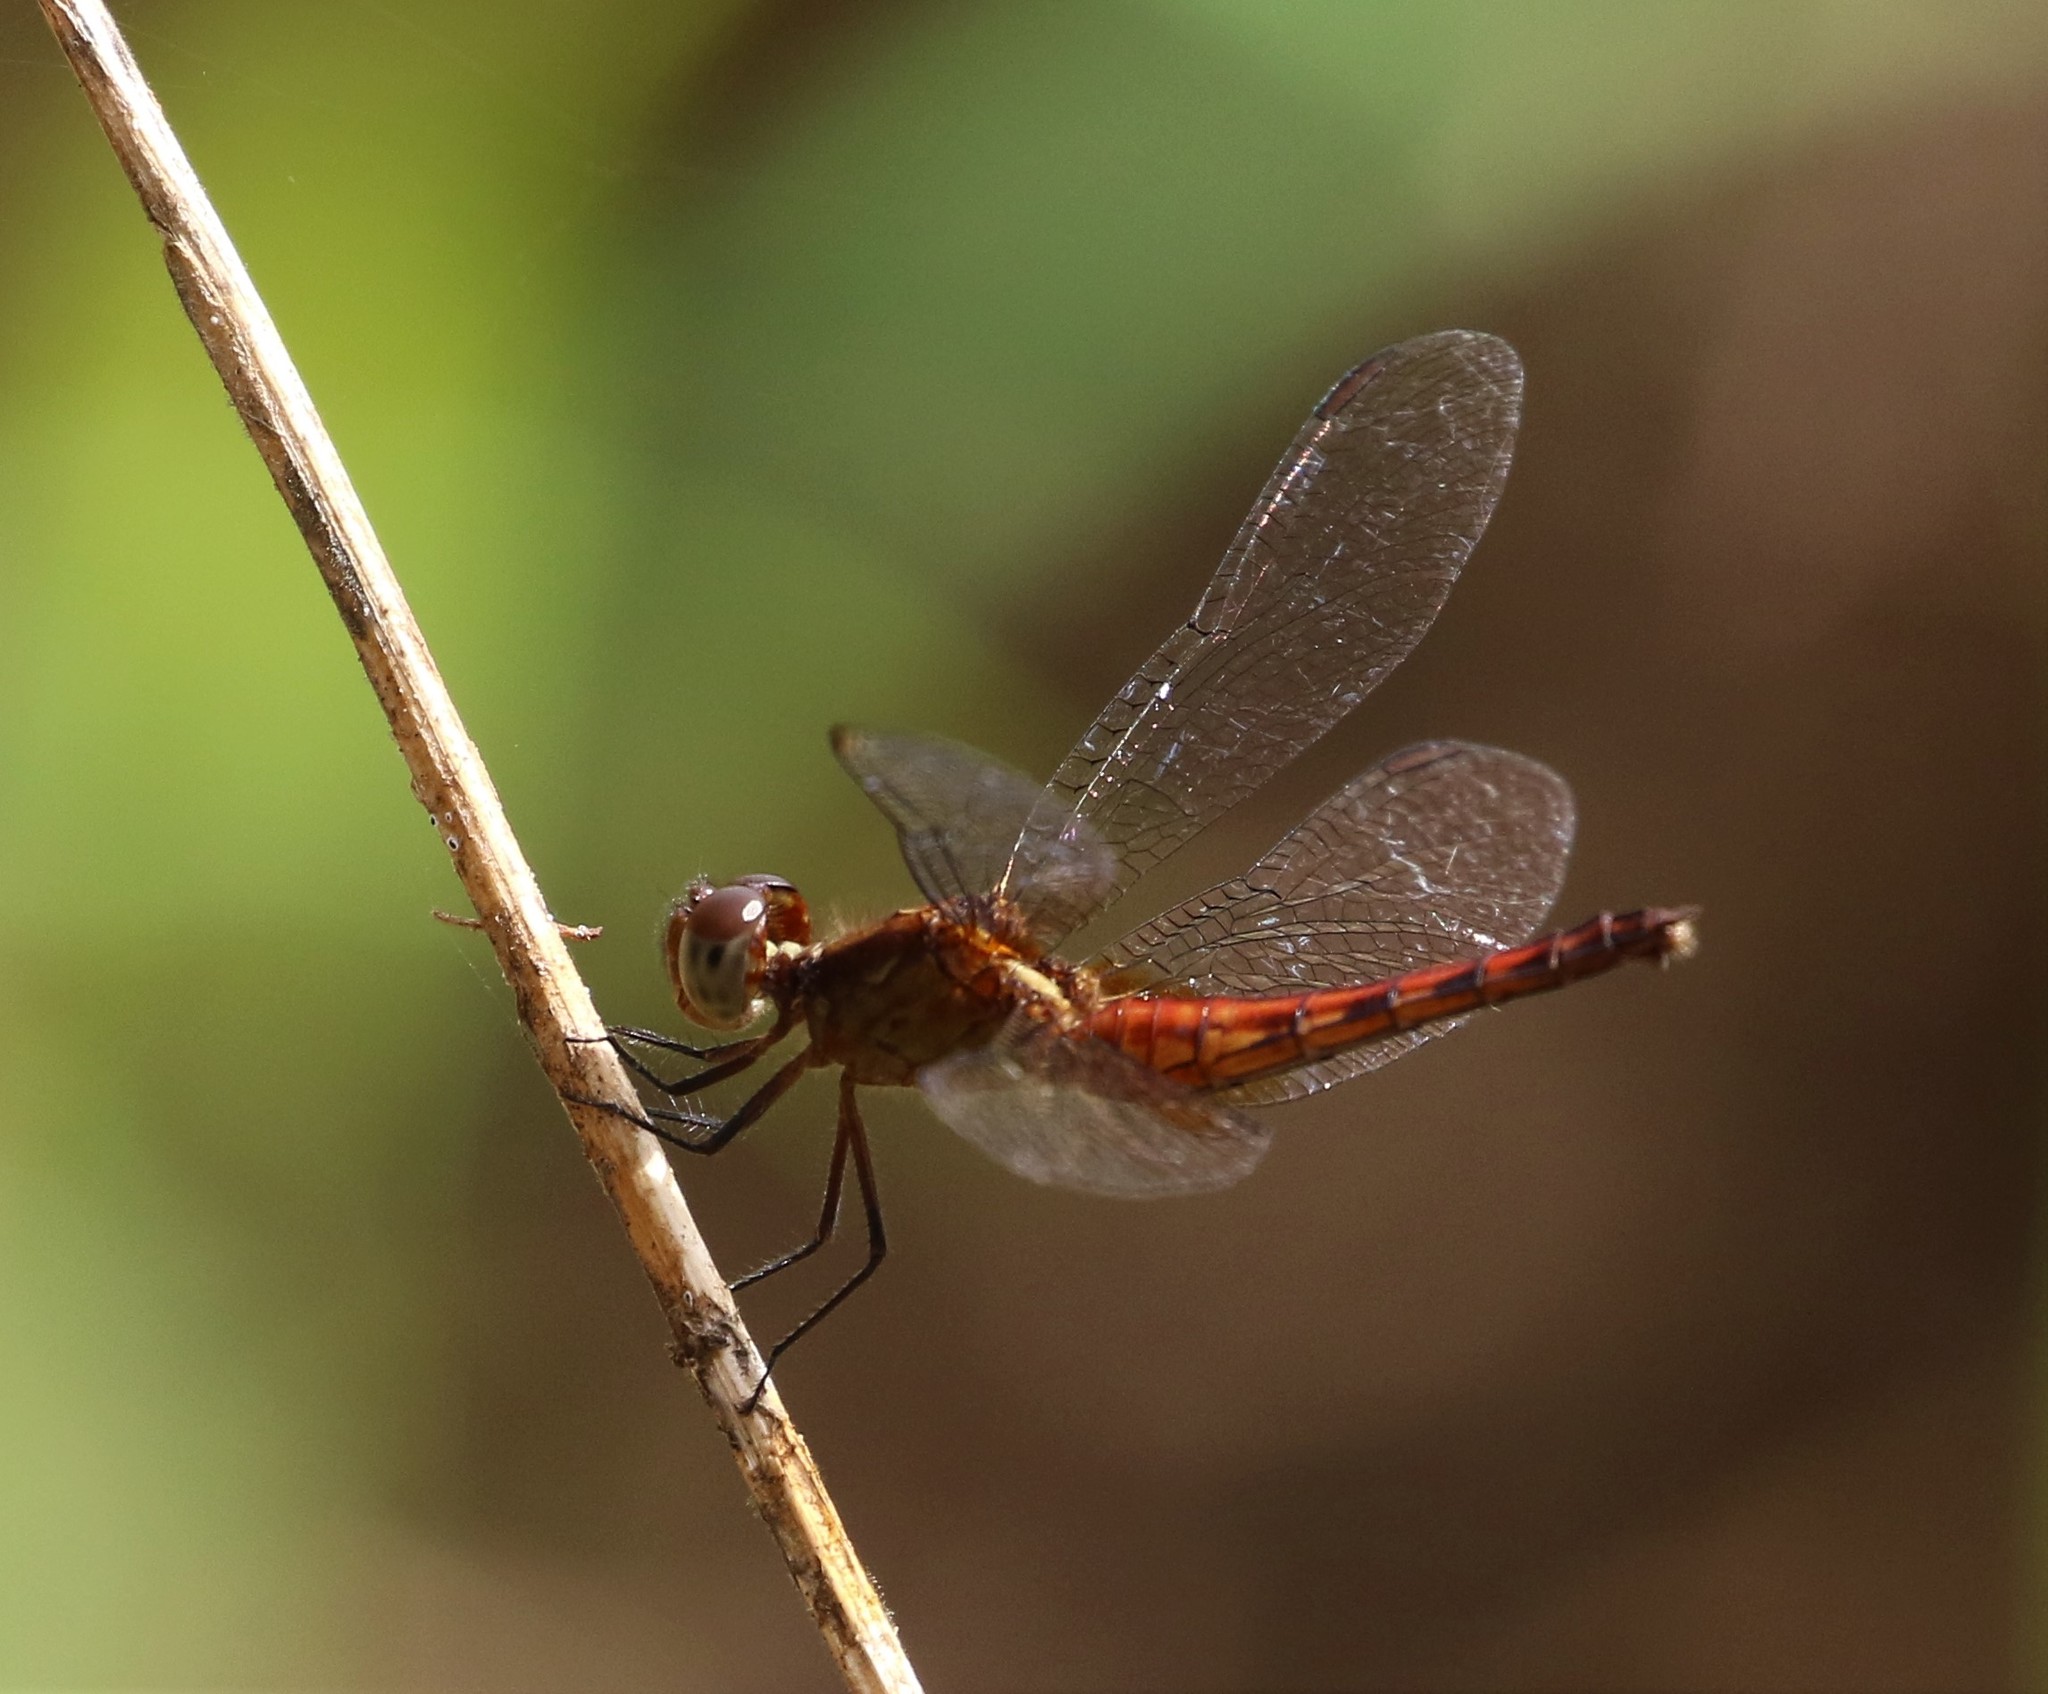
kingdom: Animalia
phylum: Arthropoda
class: Insecta
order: Odonata
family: Libellulidae
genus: Erythrodiplax
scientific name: Erythrodiplax fusca
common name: Red-faced dragonlet
